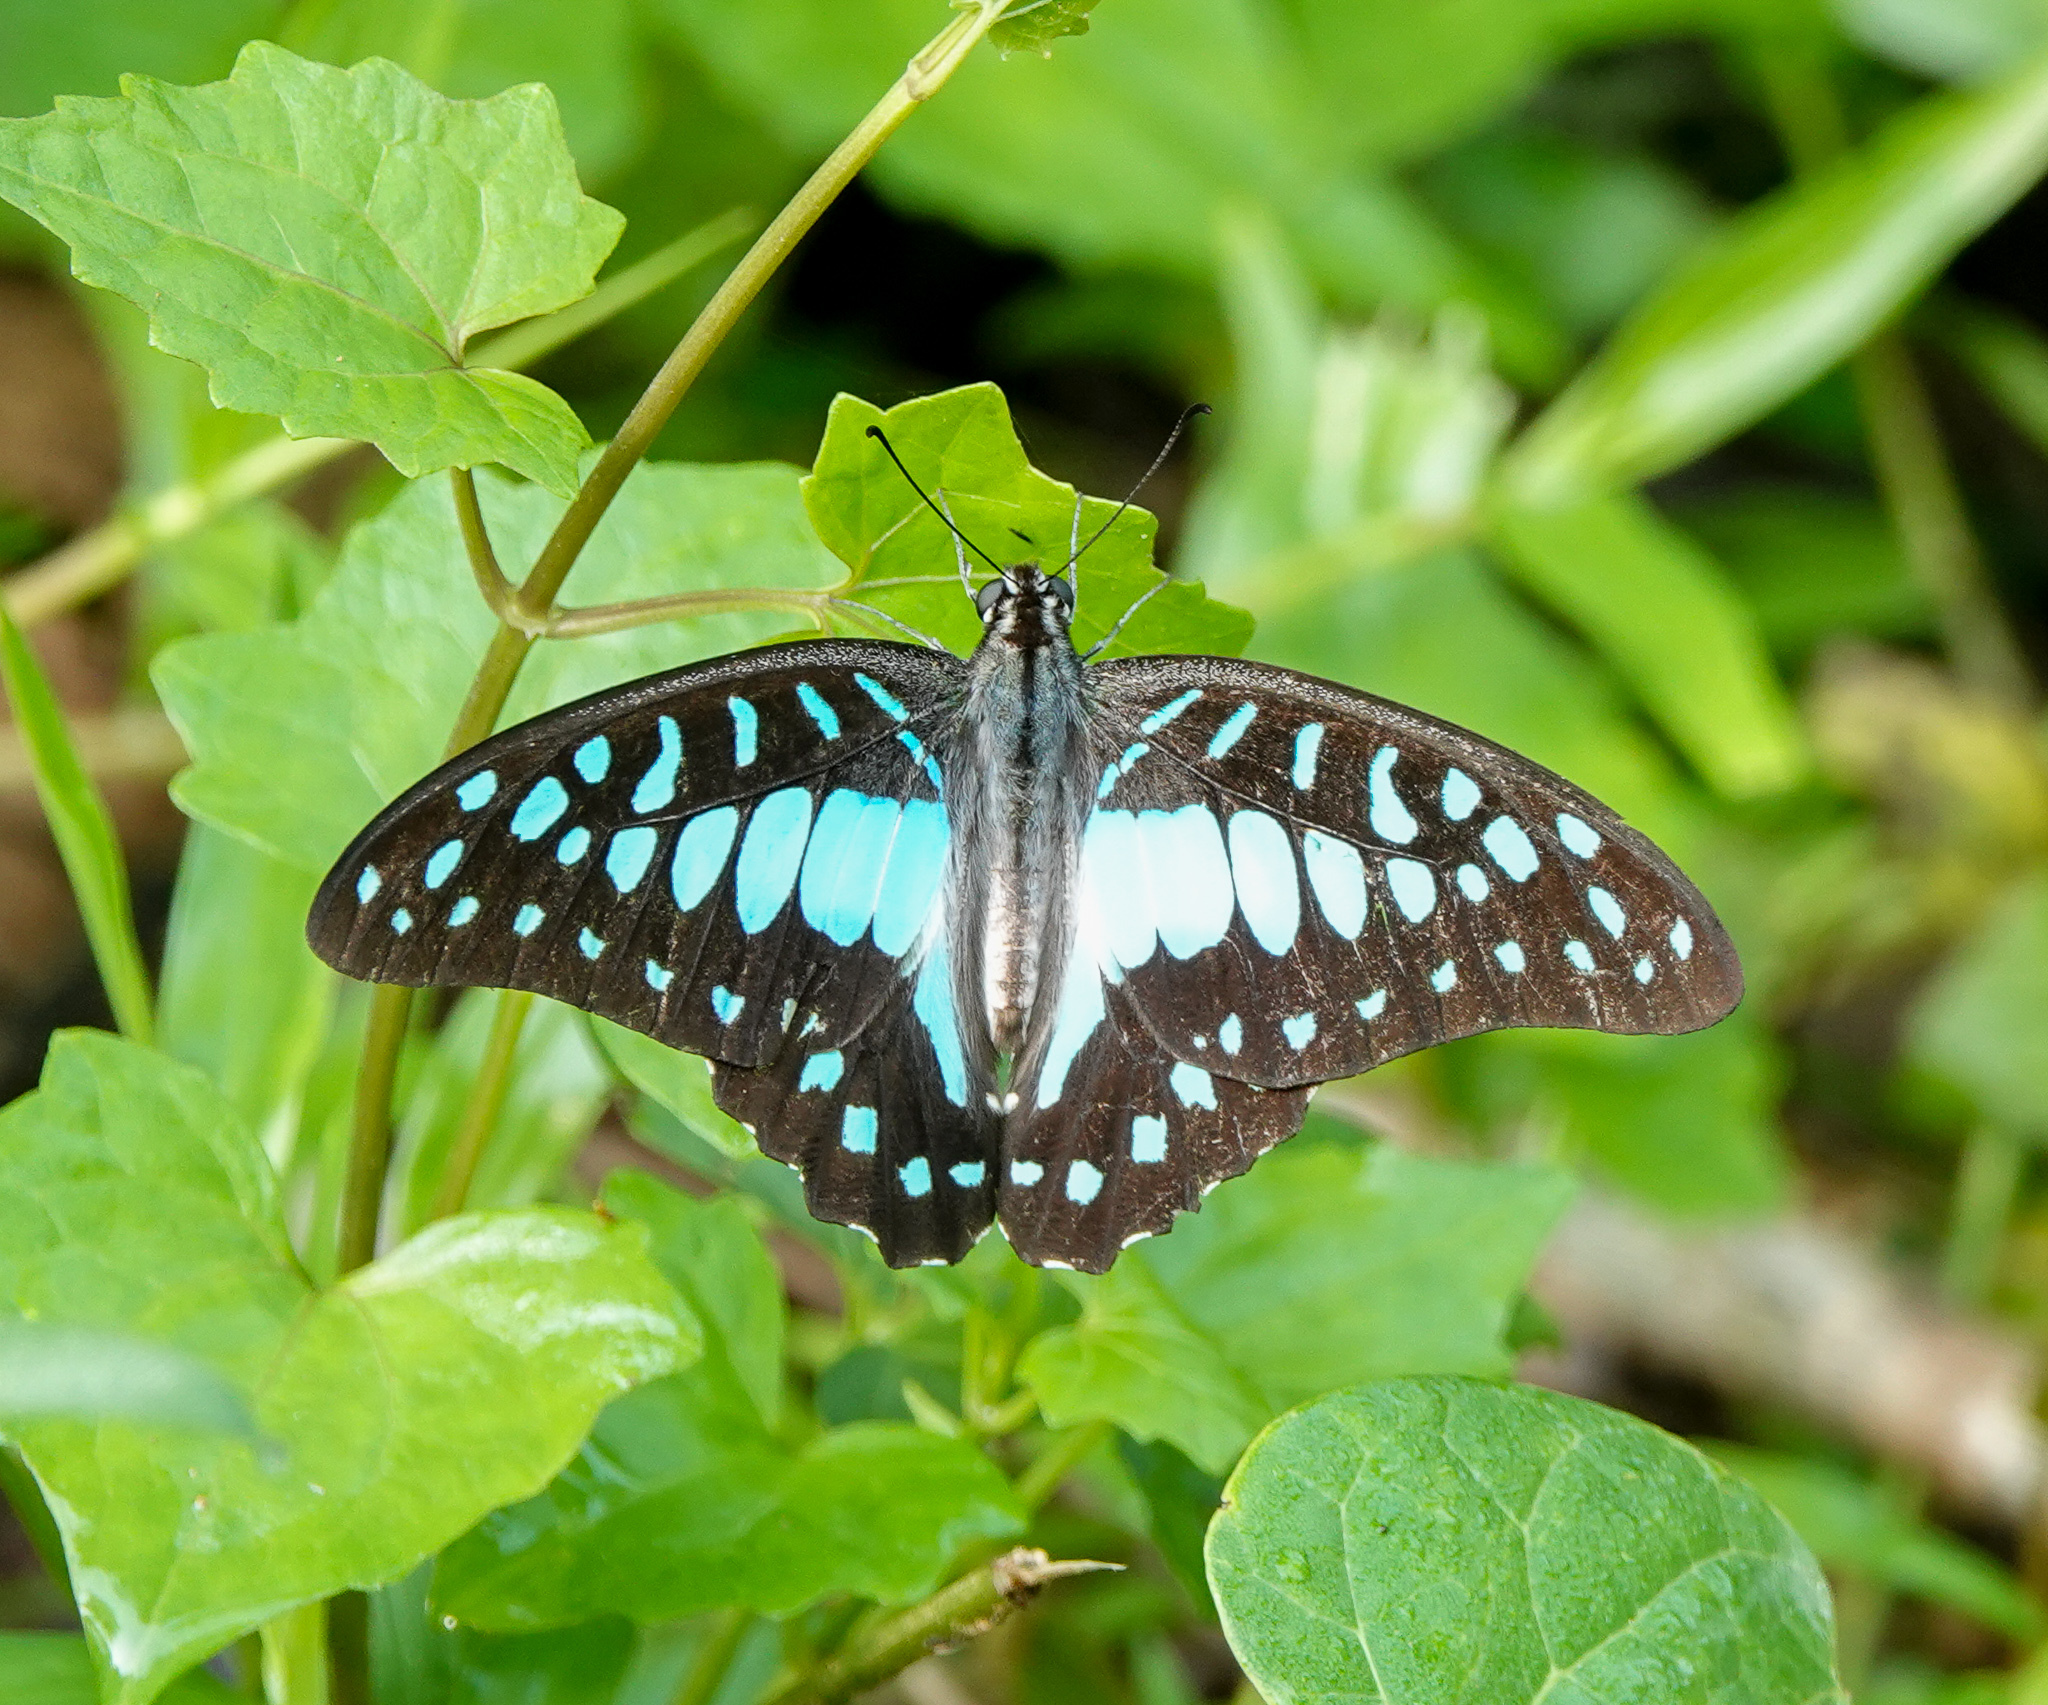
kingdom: Animalia
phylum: Arthropoda
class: Insecta
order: Lepidoptera
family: Papilionidae
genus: Graphium
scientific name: Graphium doson
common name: Common jay
